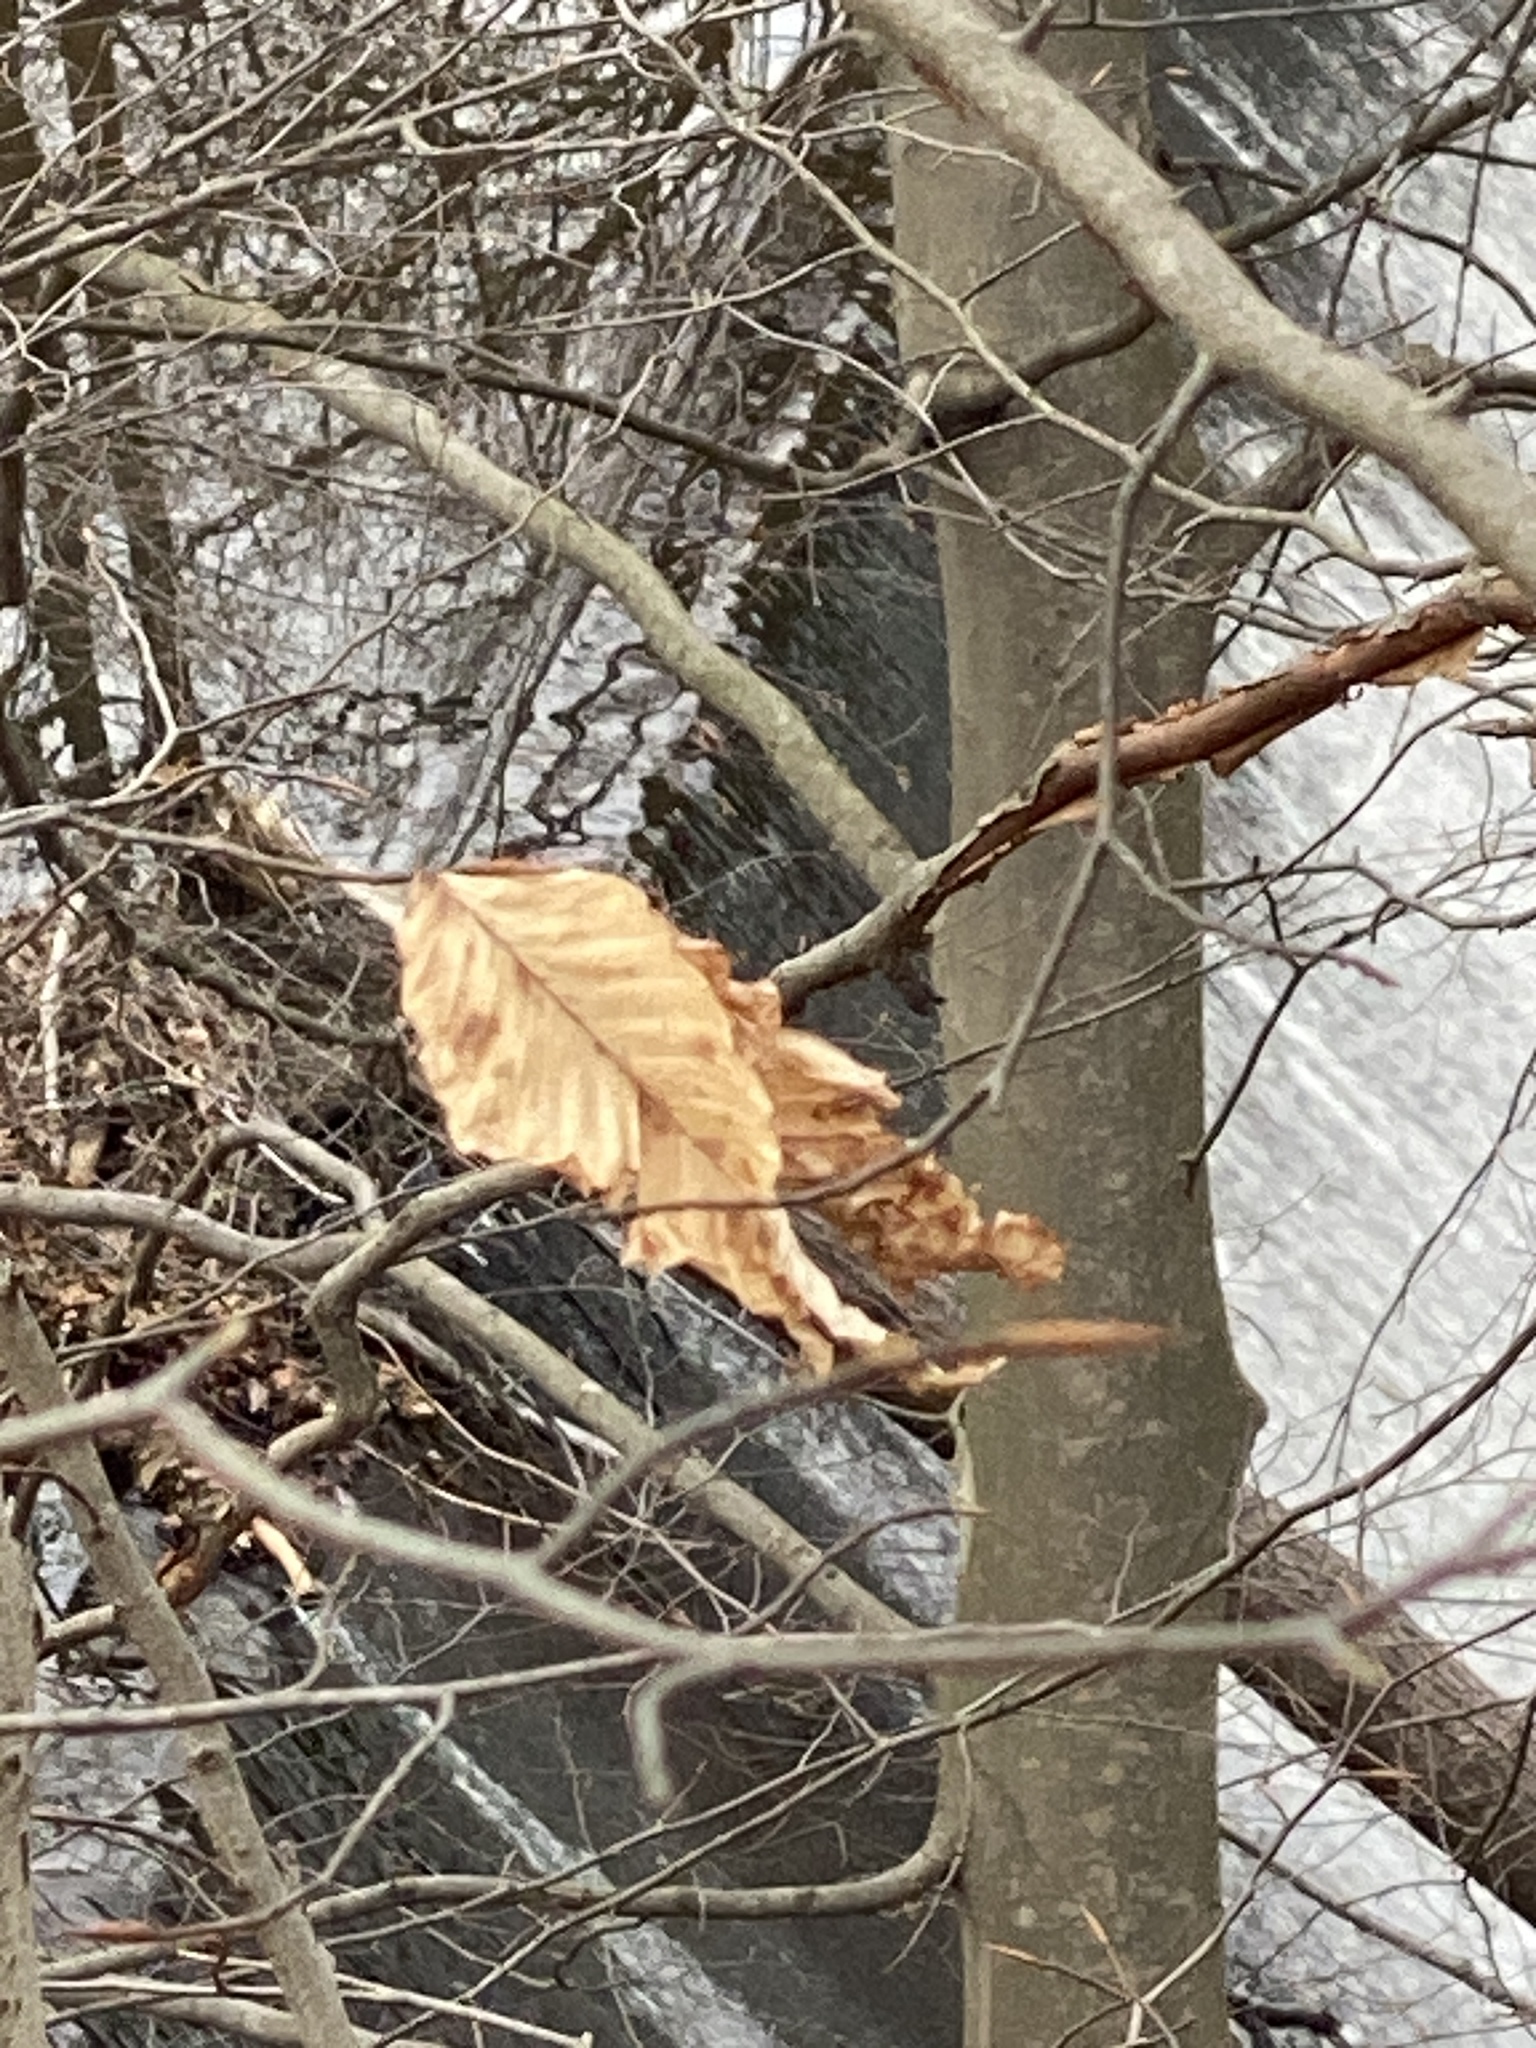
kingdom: Plantae
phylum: Tracheophyta
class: Magnoliopsida
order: Fagales
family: Fagaceae
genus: Fagus
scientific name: Fagus grandifolia
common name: American beech
